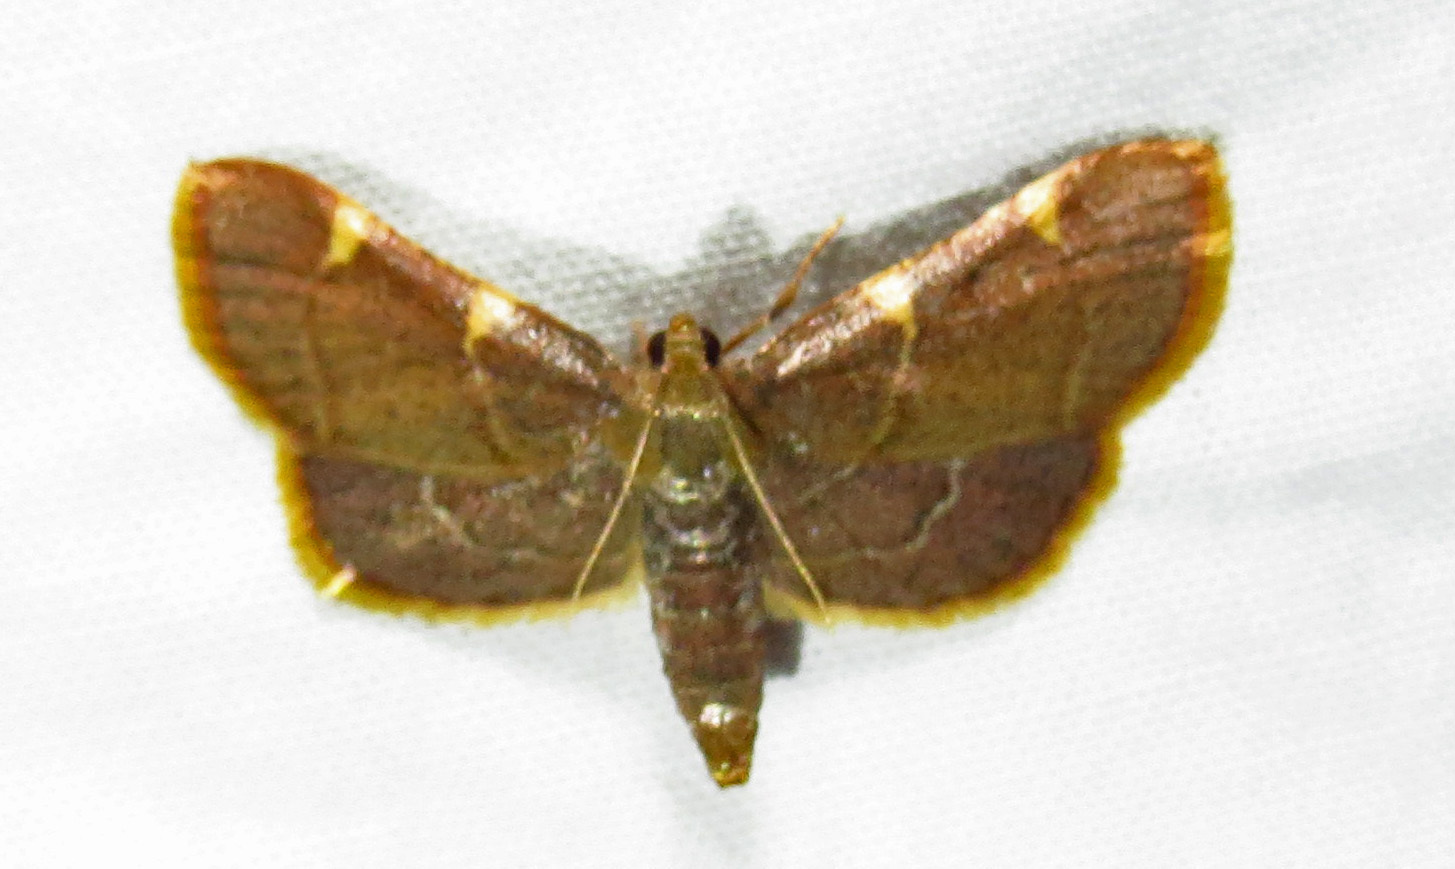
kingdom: Animalia
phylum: Arthropoda
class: Insecta
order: Lepidoptera
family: Pyralidae
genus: Hypsopygia
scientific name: Hypsopygia olinalis
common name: Yellow-fringed dolichomia moth
